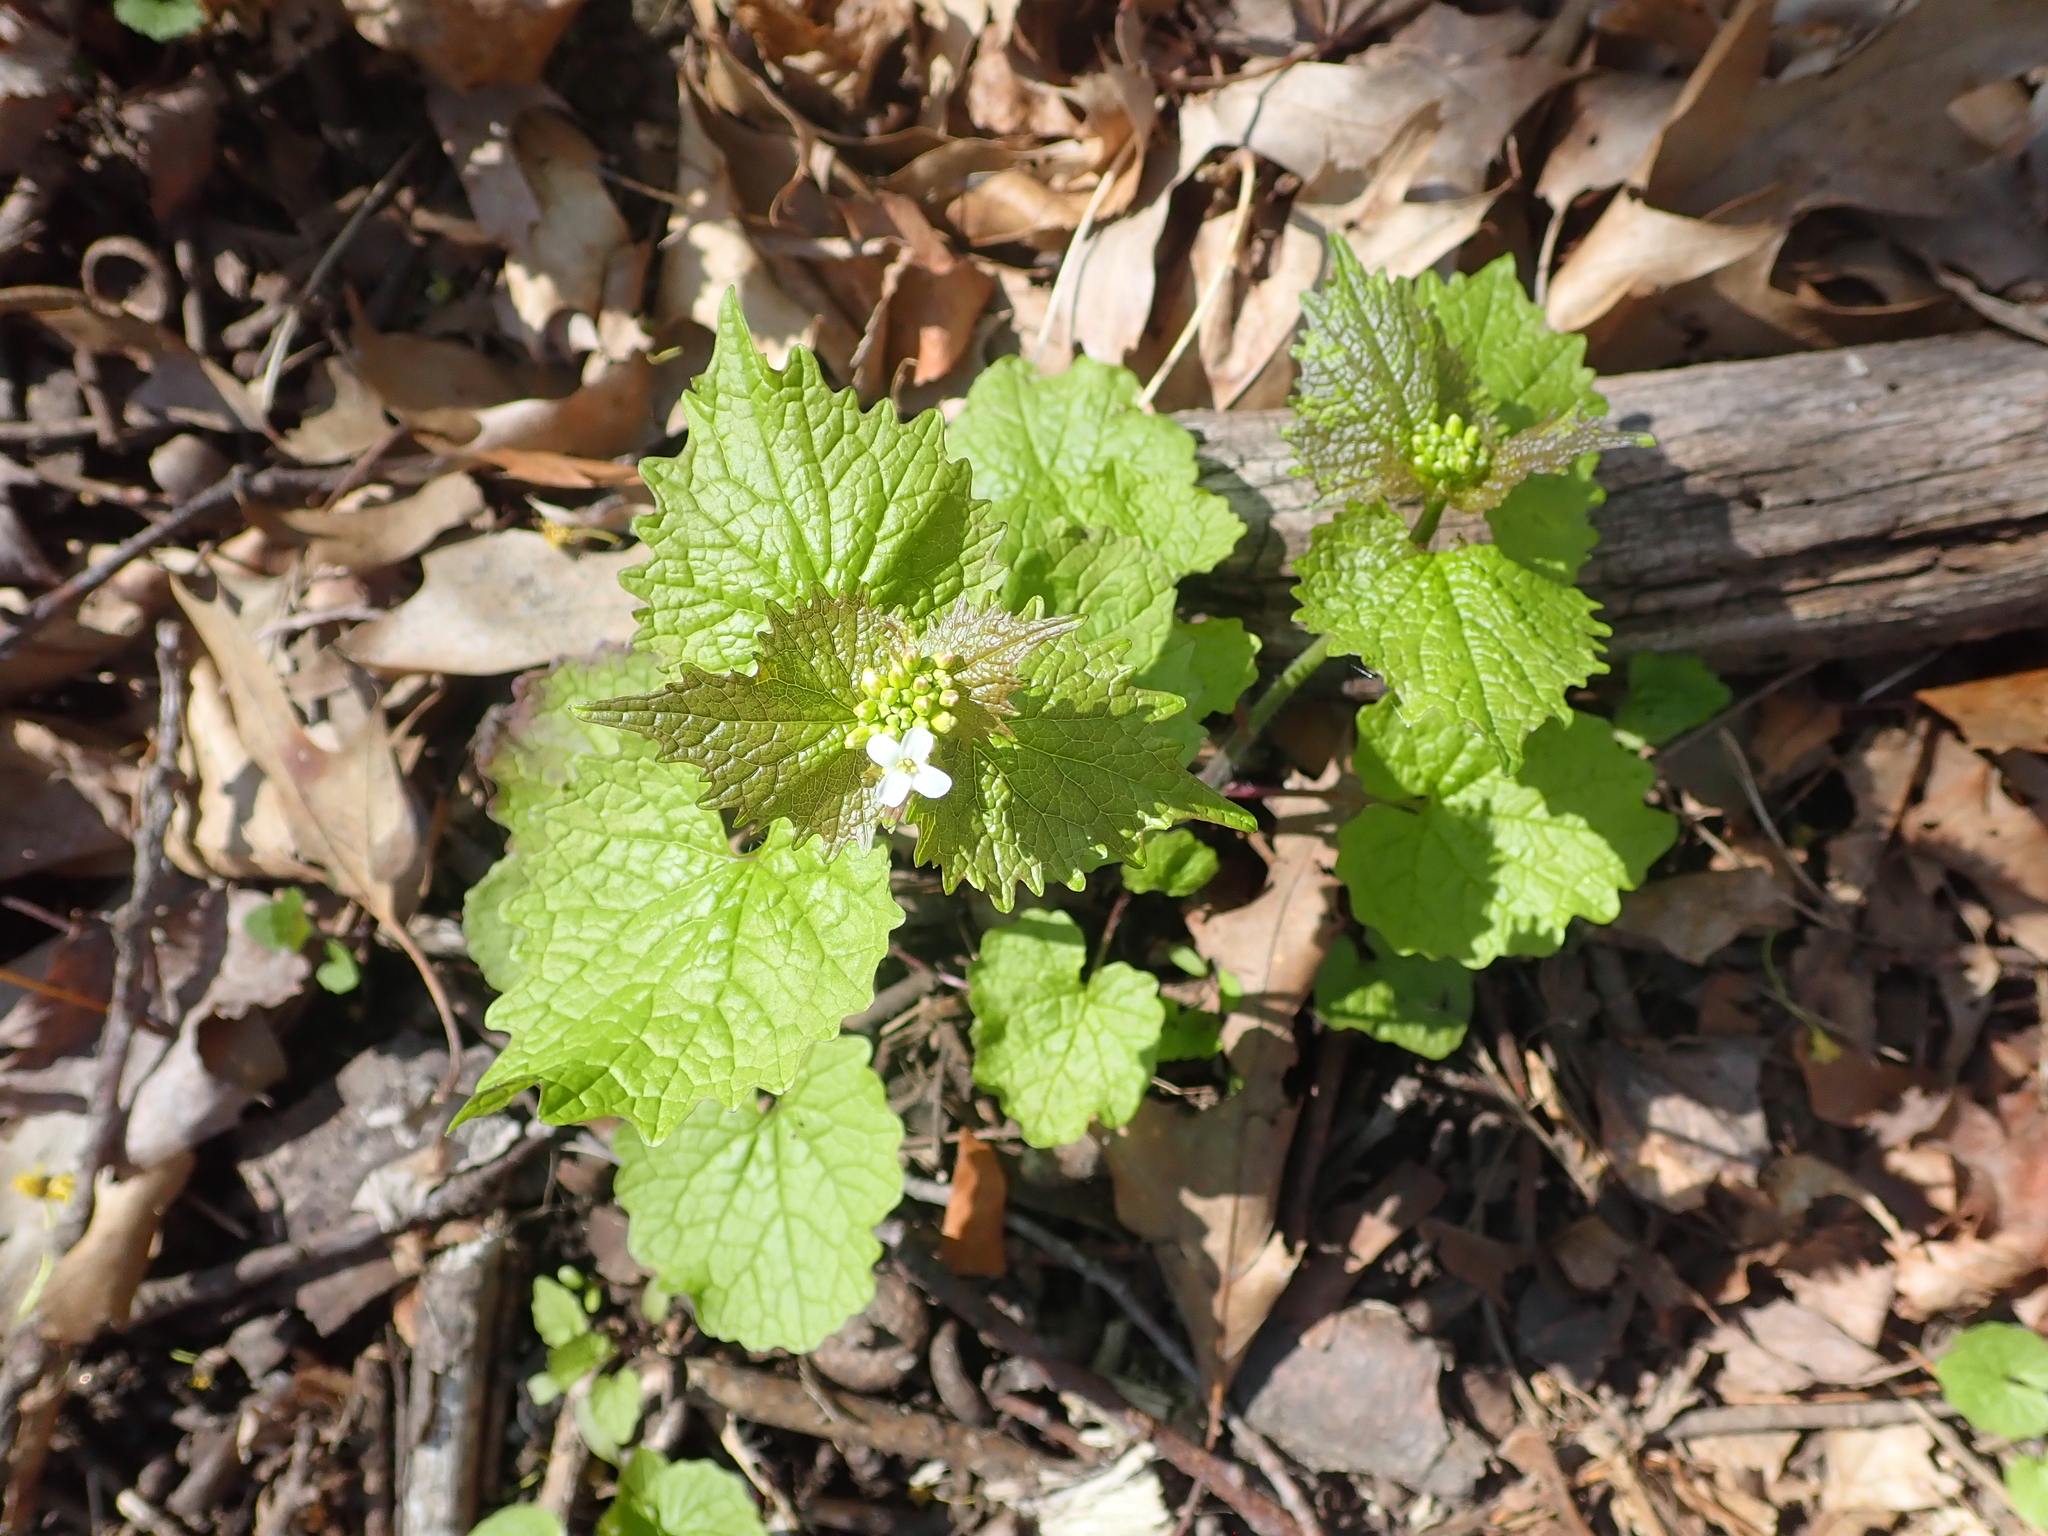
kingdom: Plantae
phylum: Tracheophyta
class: Magnoliopsida
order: Brassicales
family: Brassicaceae
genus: Alliaria
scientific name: Alliaria petiolata
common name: Garlic mustard
